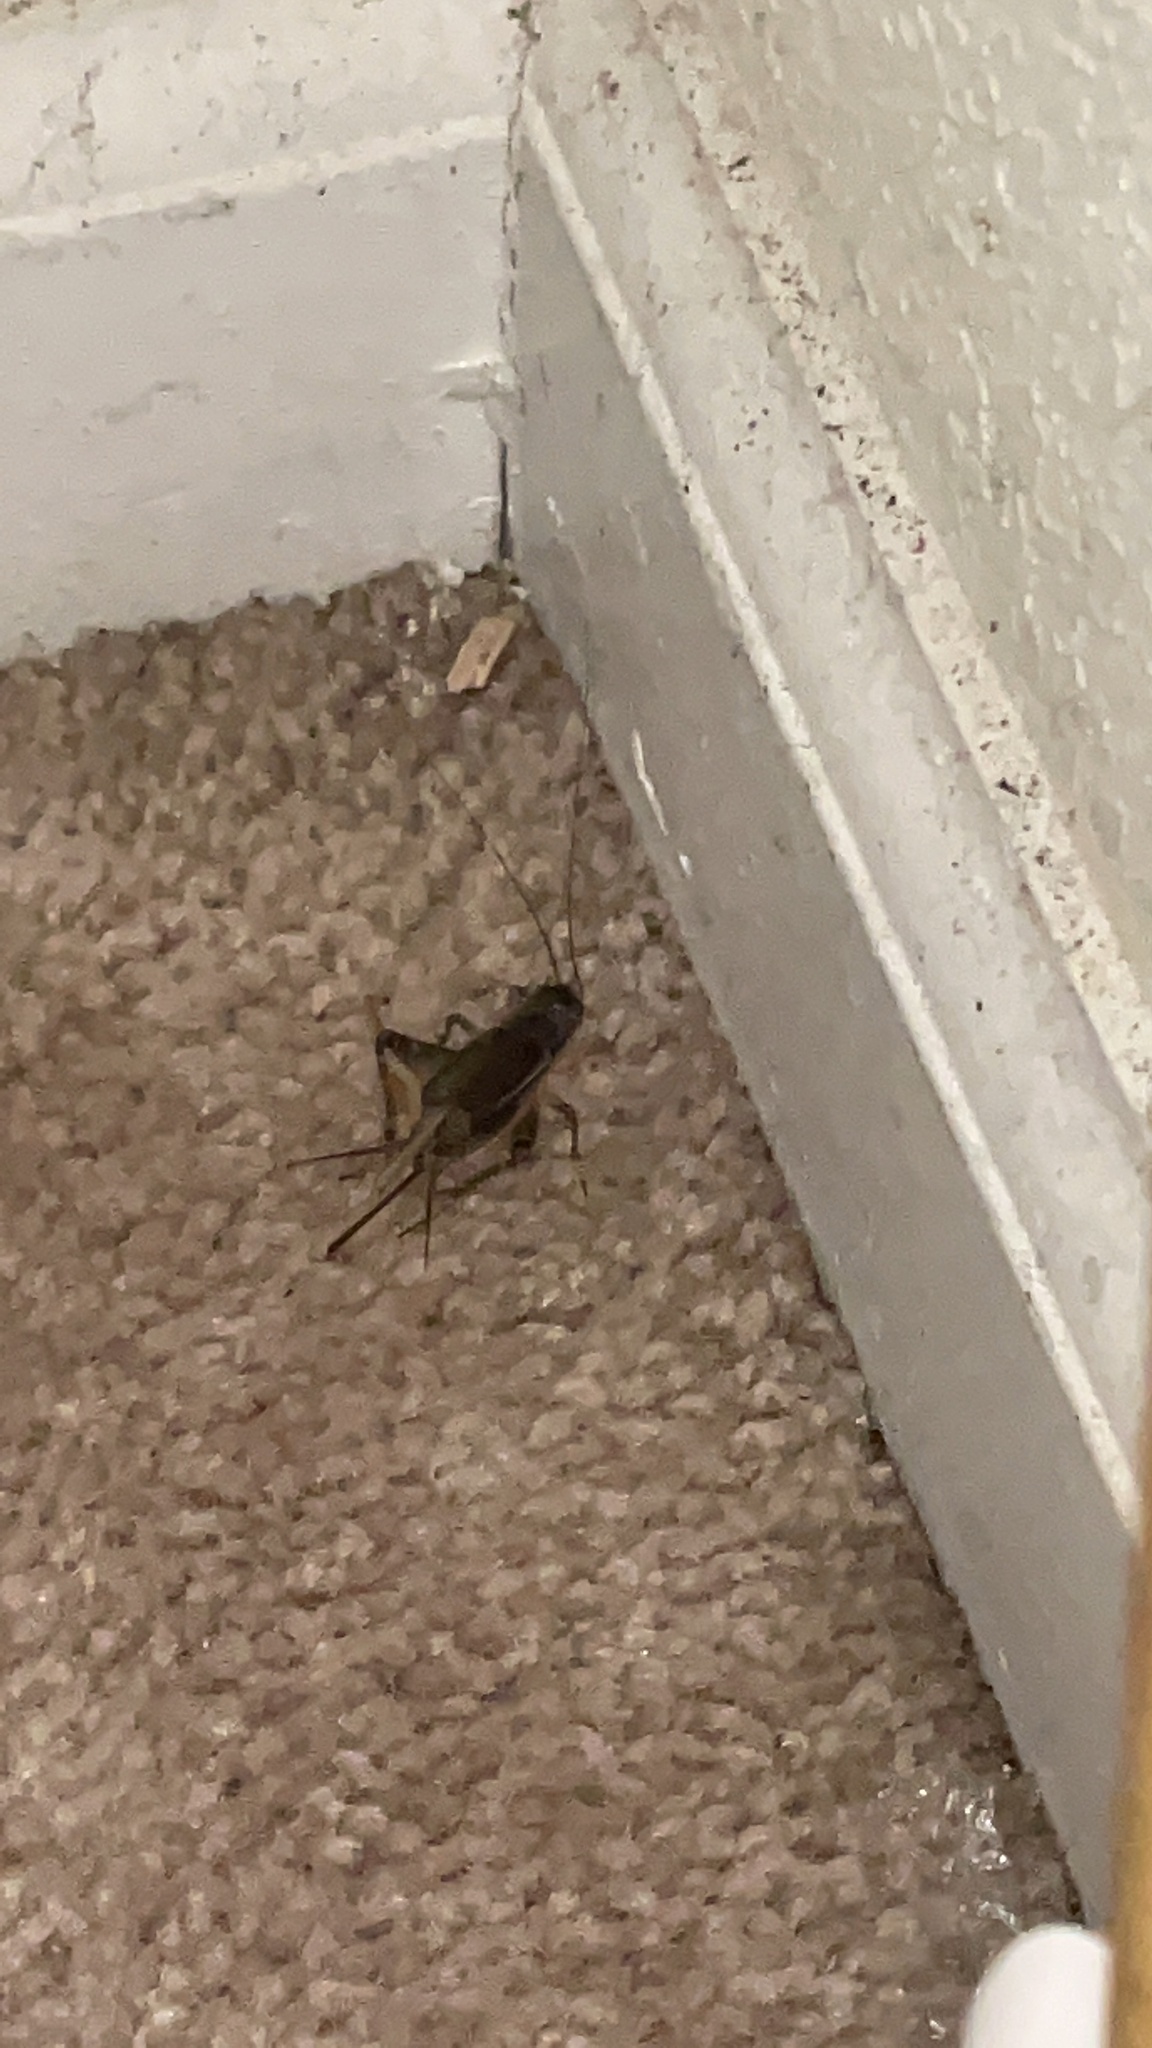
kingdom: Animalia
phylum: Arthropoda
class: Insecta
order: Orthoptera
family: Gryllidae
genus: Velarifictorus
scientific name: Velarifictorus micado
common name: Japanese burrowing cricket
